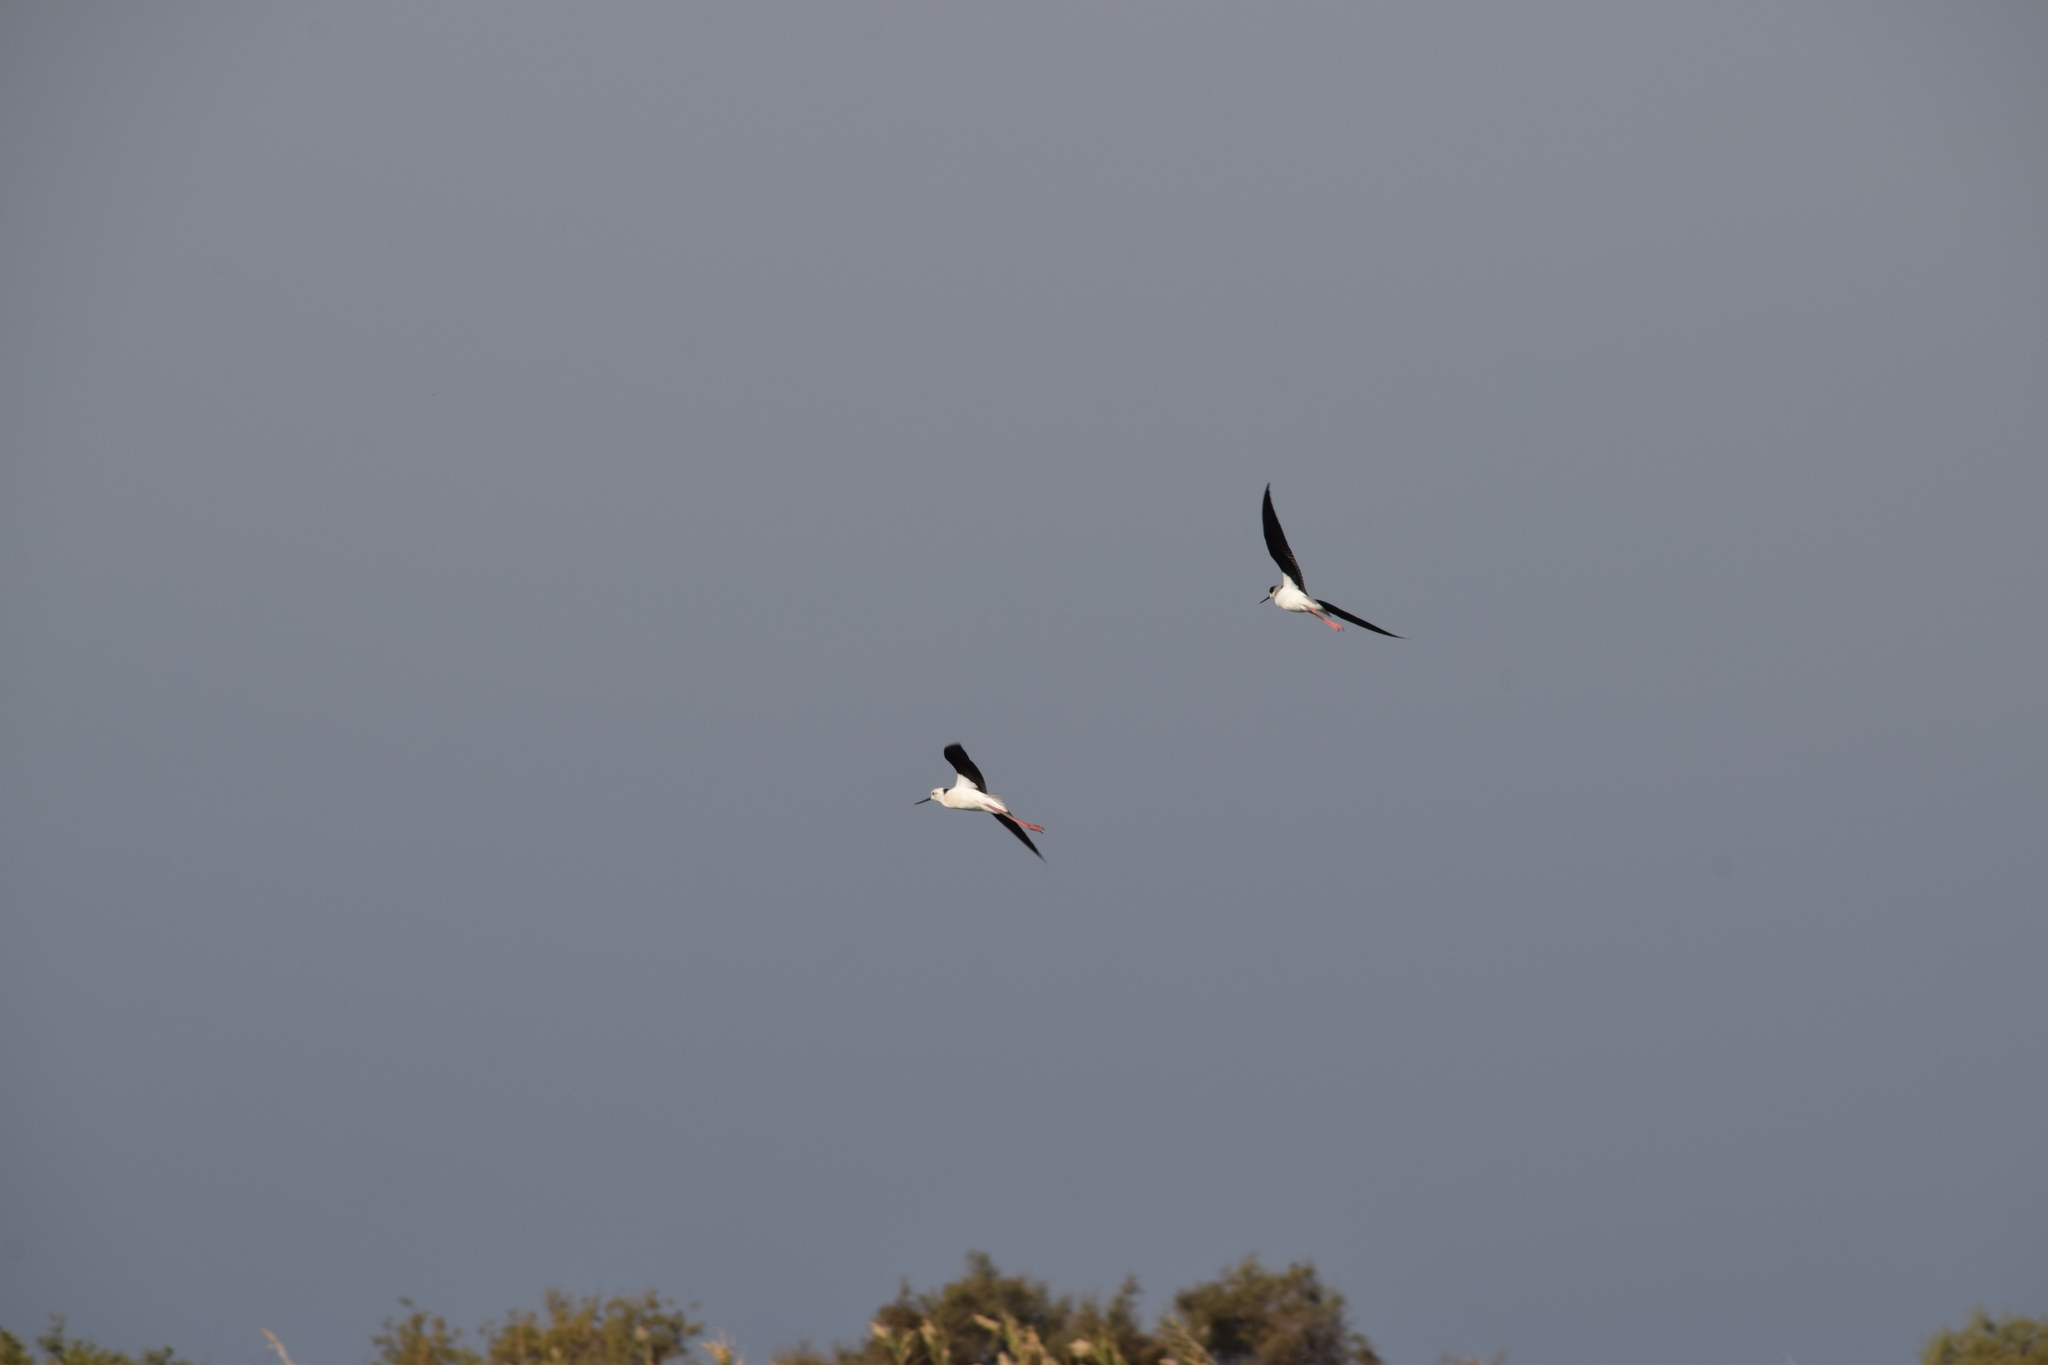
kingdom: Animalia
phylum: Chordata
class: Aves
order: Charadriiformes
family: Recurvirostridae
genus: Himantopus
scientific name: Himantopus himantopus
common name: Black-winged stilt
